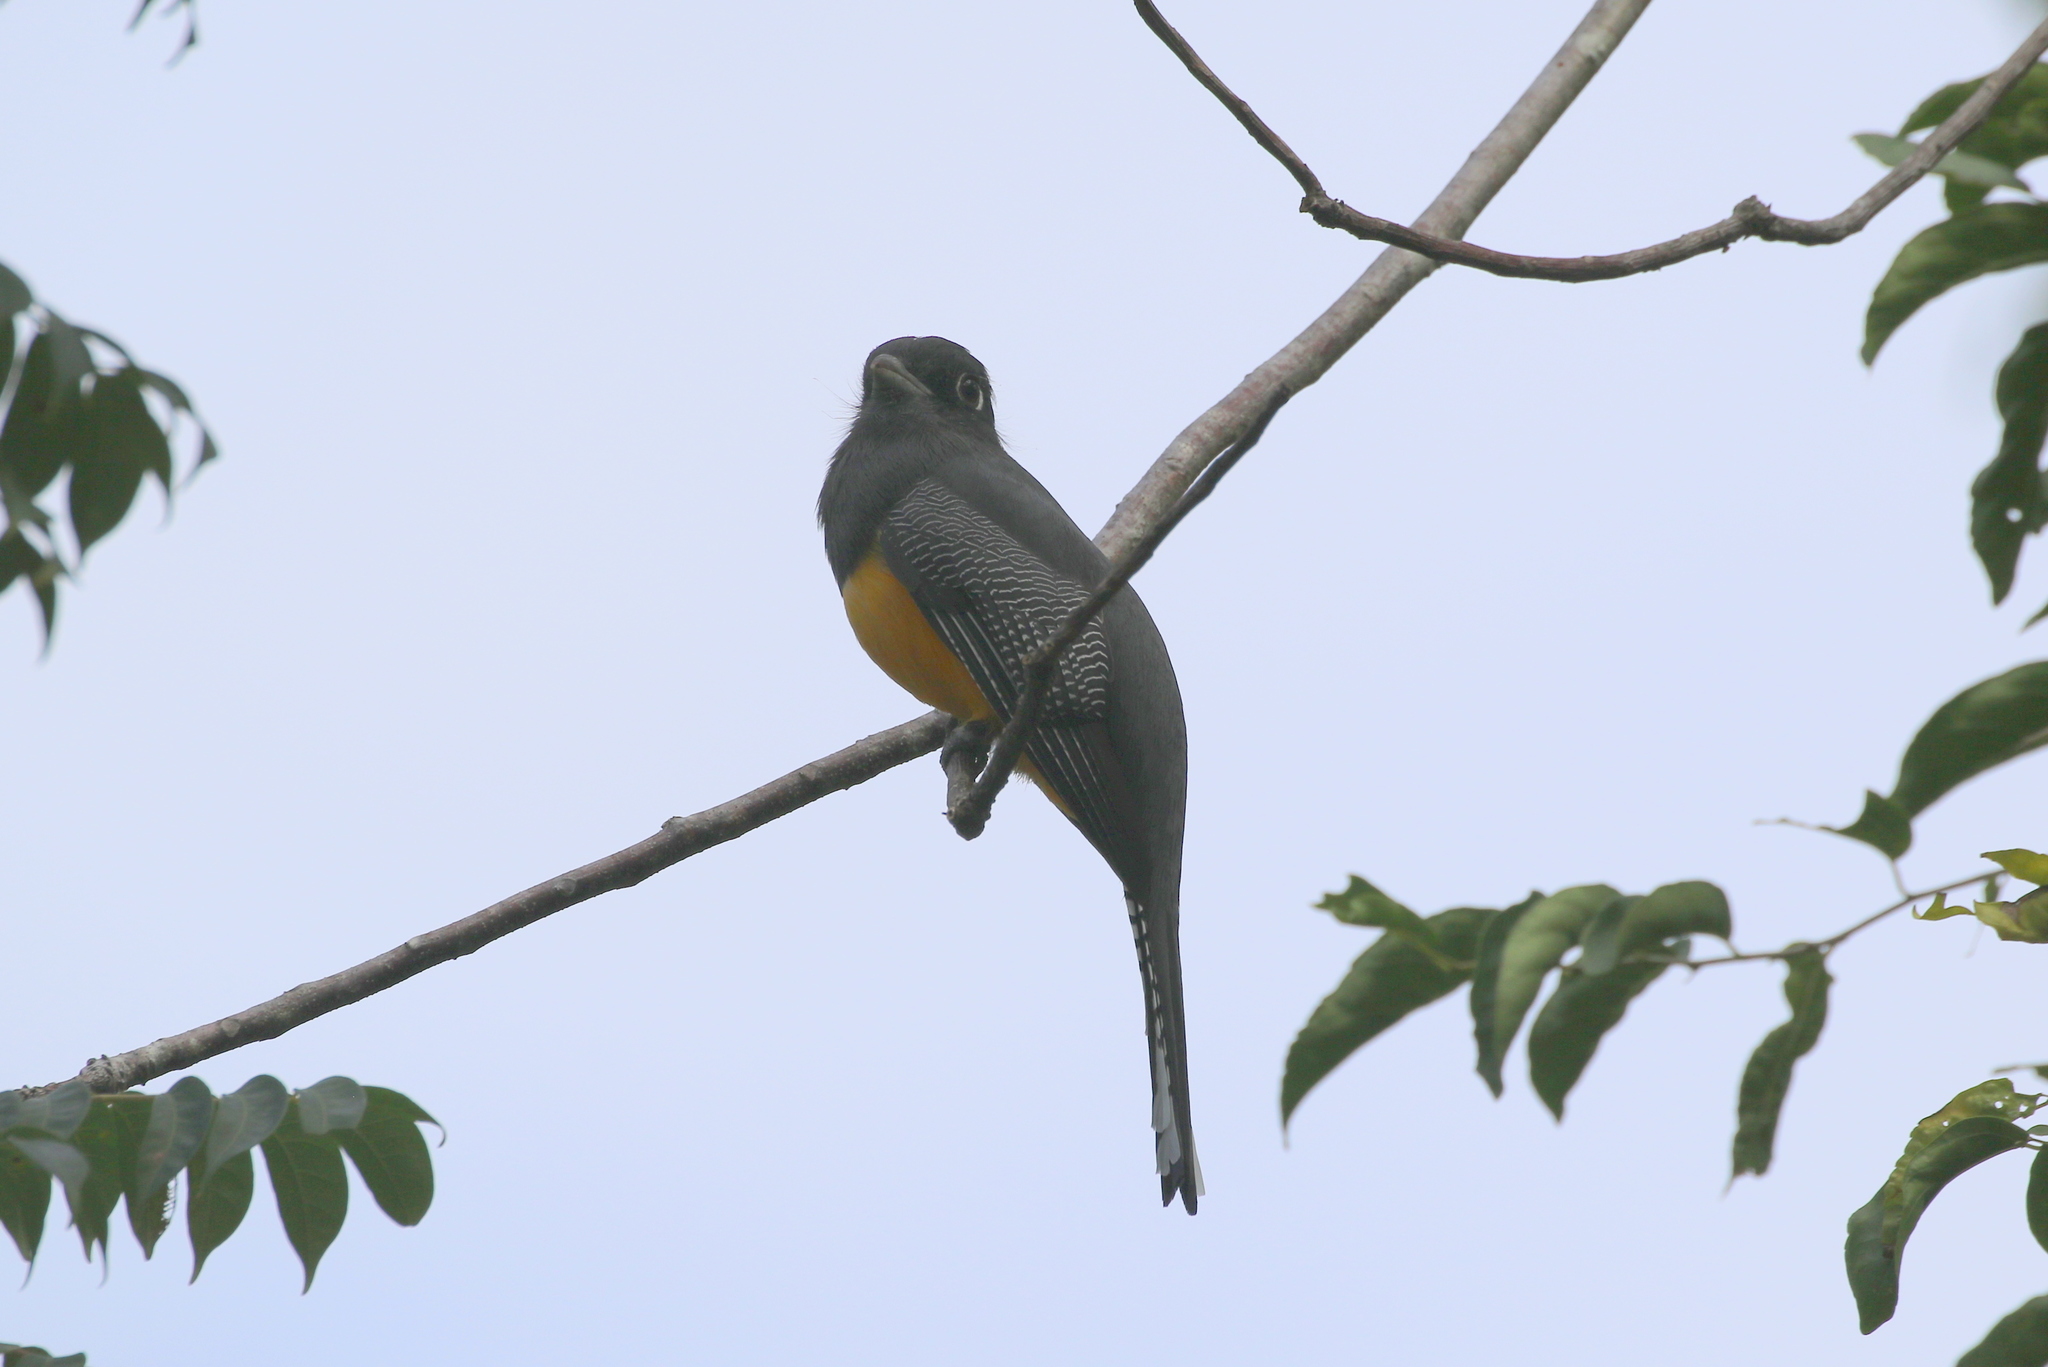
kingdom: Animalia
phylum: Chordata
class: Aves
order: Trogoniformes
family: Trogonidae
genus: Trogon
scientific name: Trogon caligatus
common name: Gartered trogon
